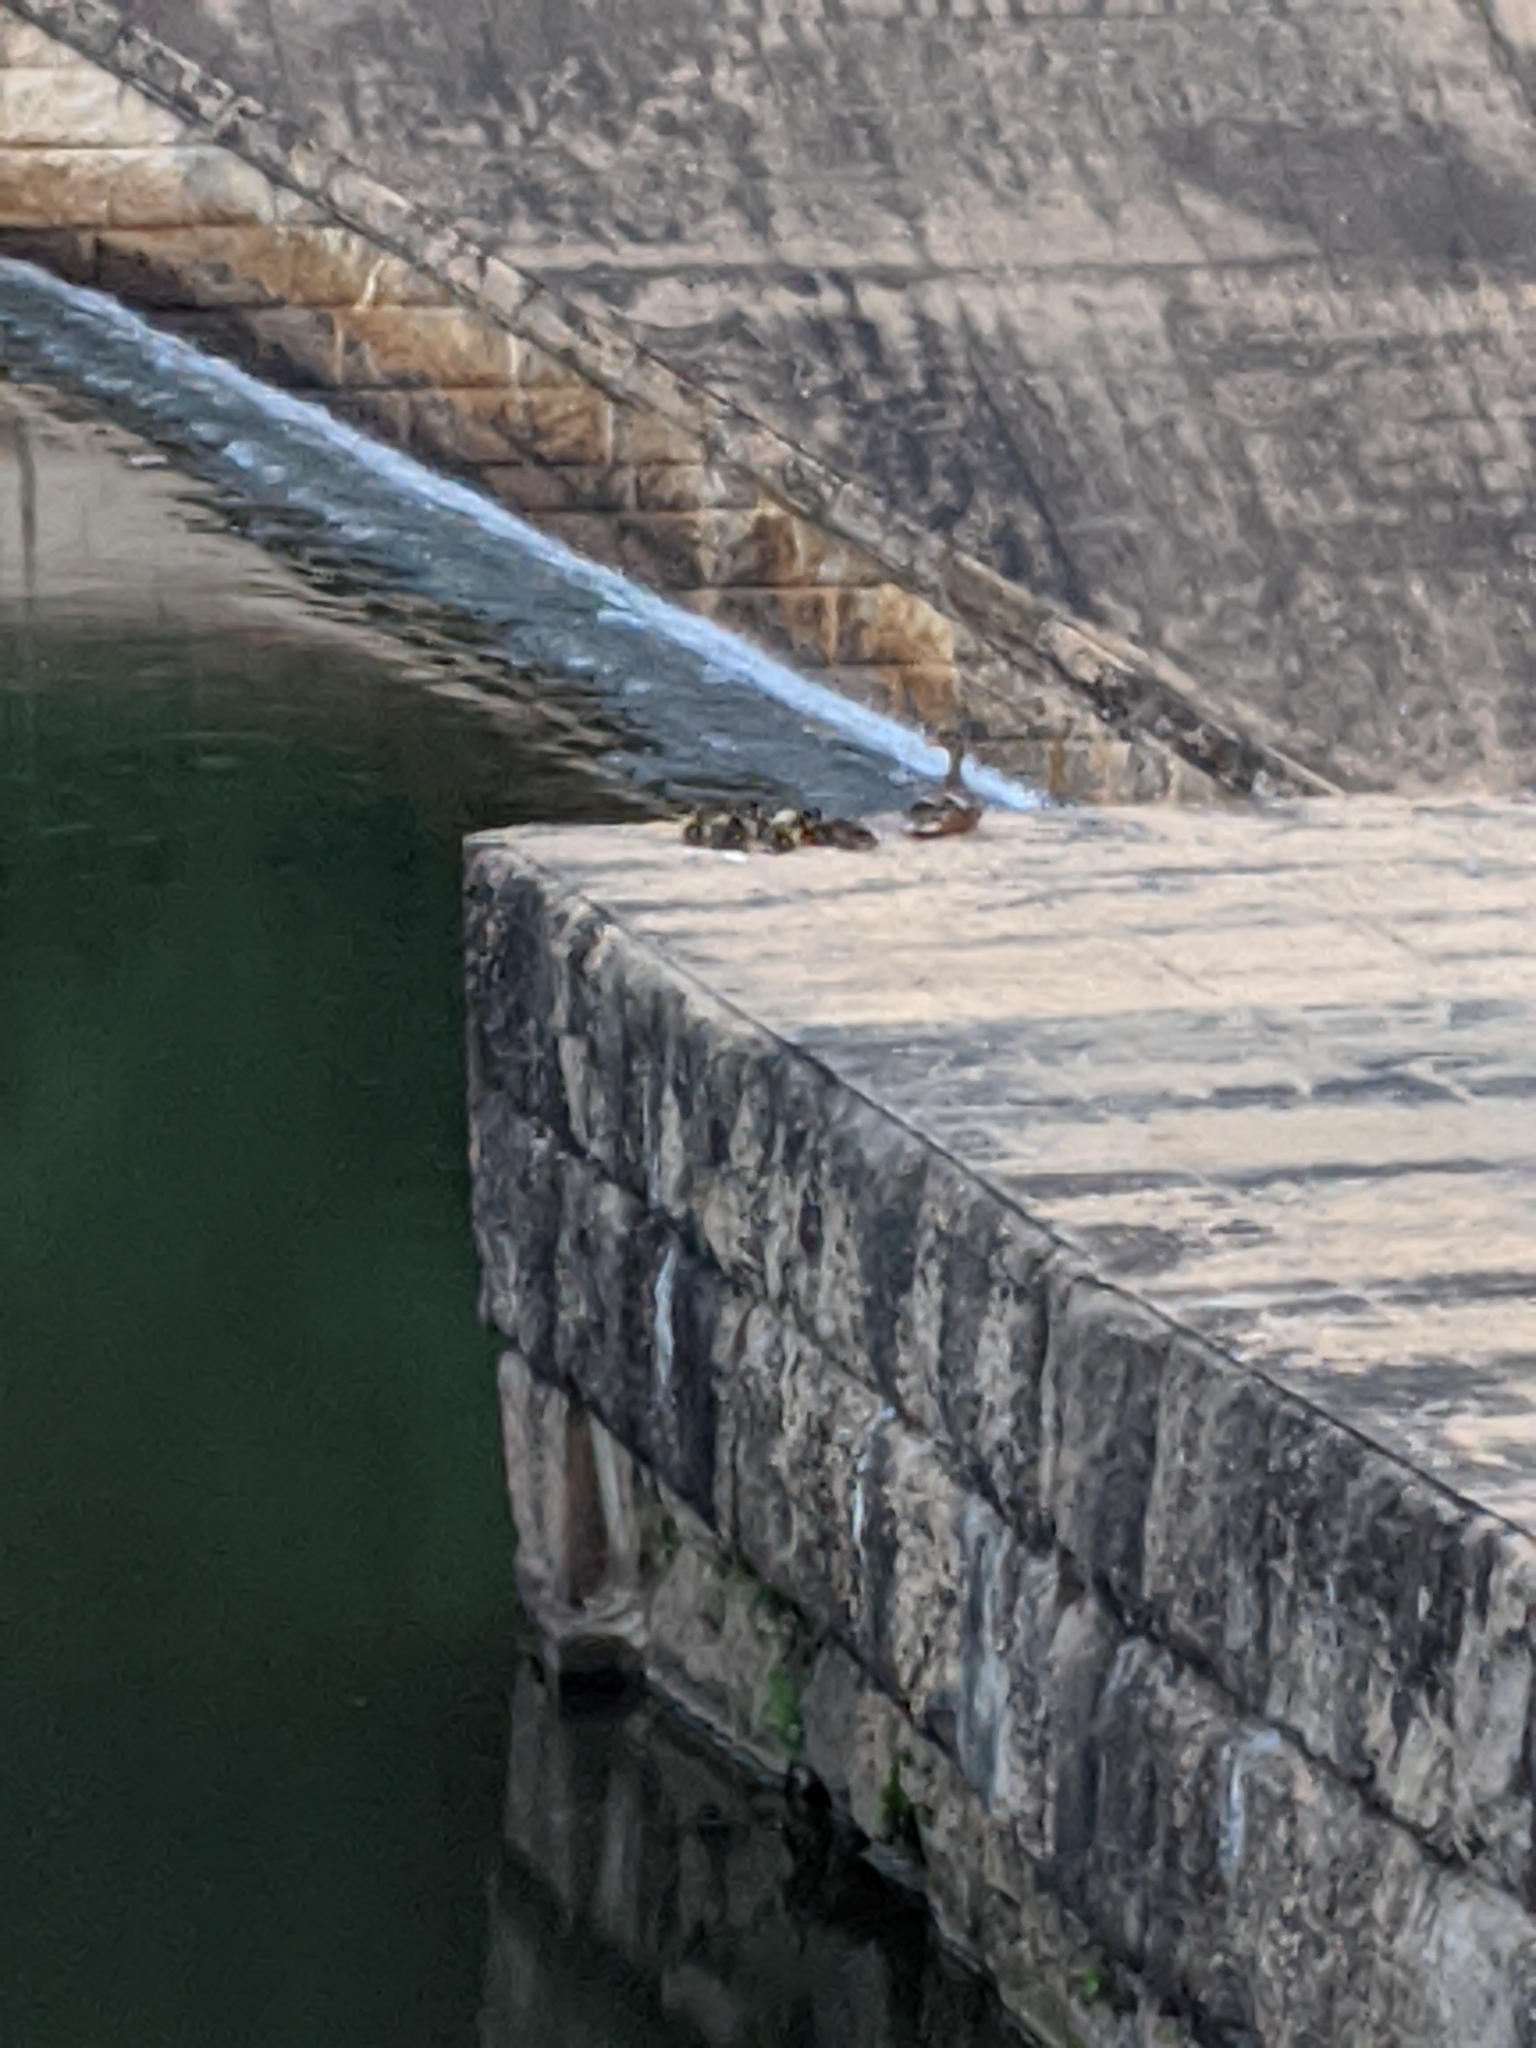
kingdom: Animalia
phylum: Chordata
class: Aves
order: Anseriformes
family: Anatidae
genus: Anas
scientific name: Anas platyrhynchos
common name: Mallard
